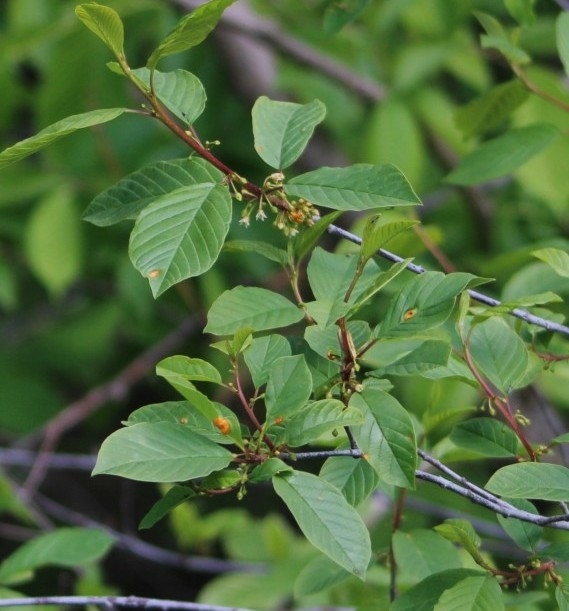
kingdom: Plantae
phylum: Tracheophyta
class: Magnoliopsida
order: Rosales
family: Rhamnaceae
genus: Frangula
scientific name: Frangula alnus
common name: Alder buckthorn
